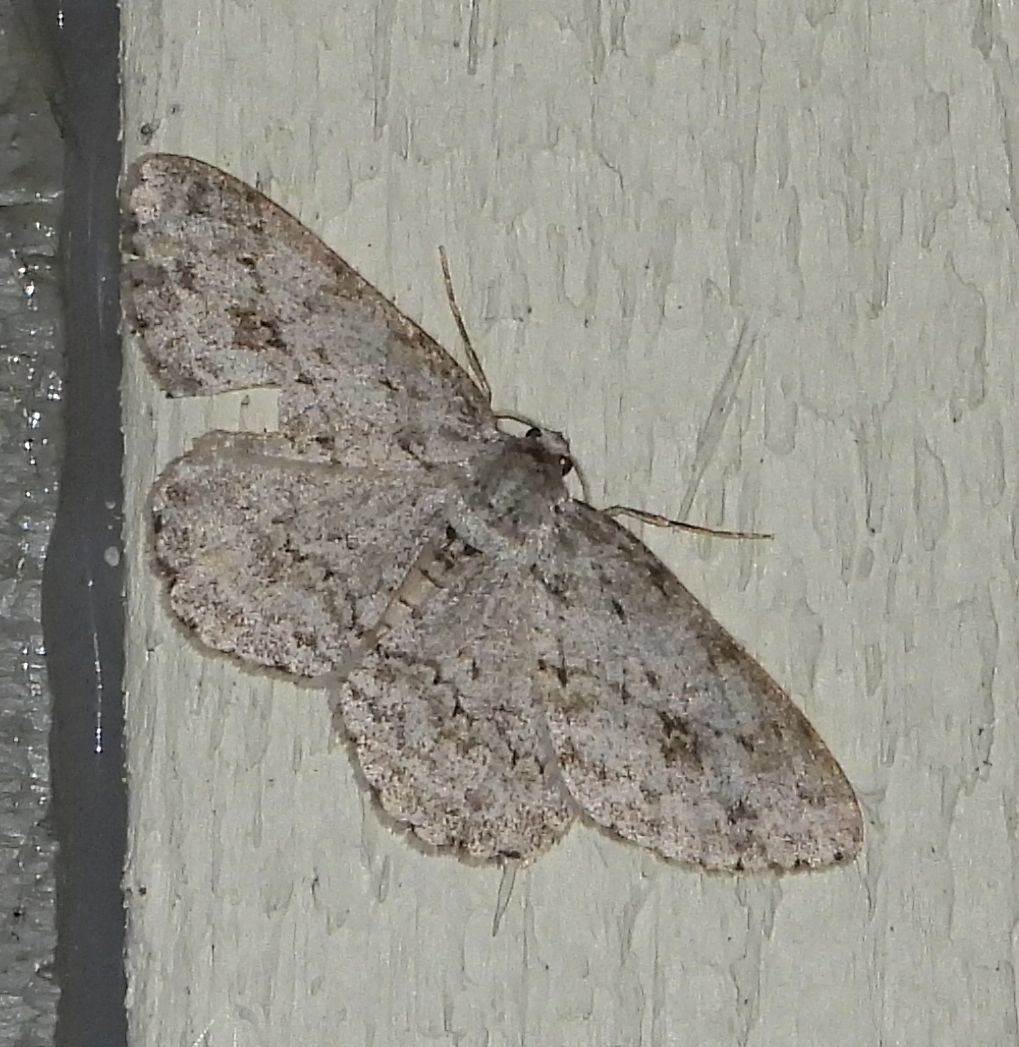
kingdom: Animalia
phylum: Arthropoda
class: Insecta
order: Lepidoptera
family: Geometridae
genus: Ectropis
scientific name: Ectropis crepuscularia
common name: Engrailed
